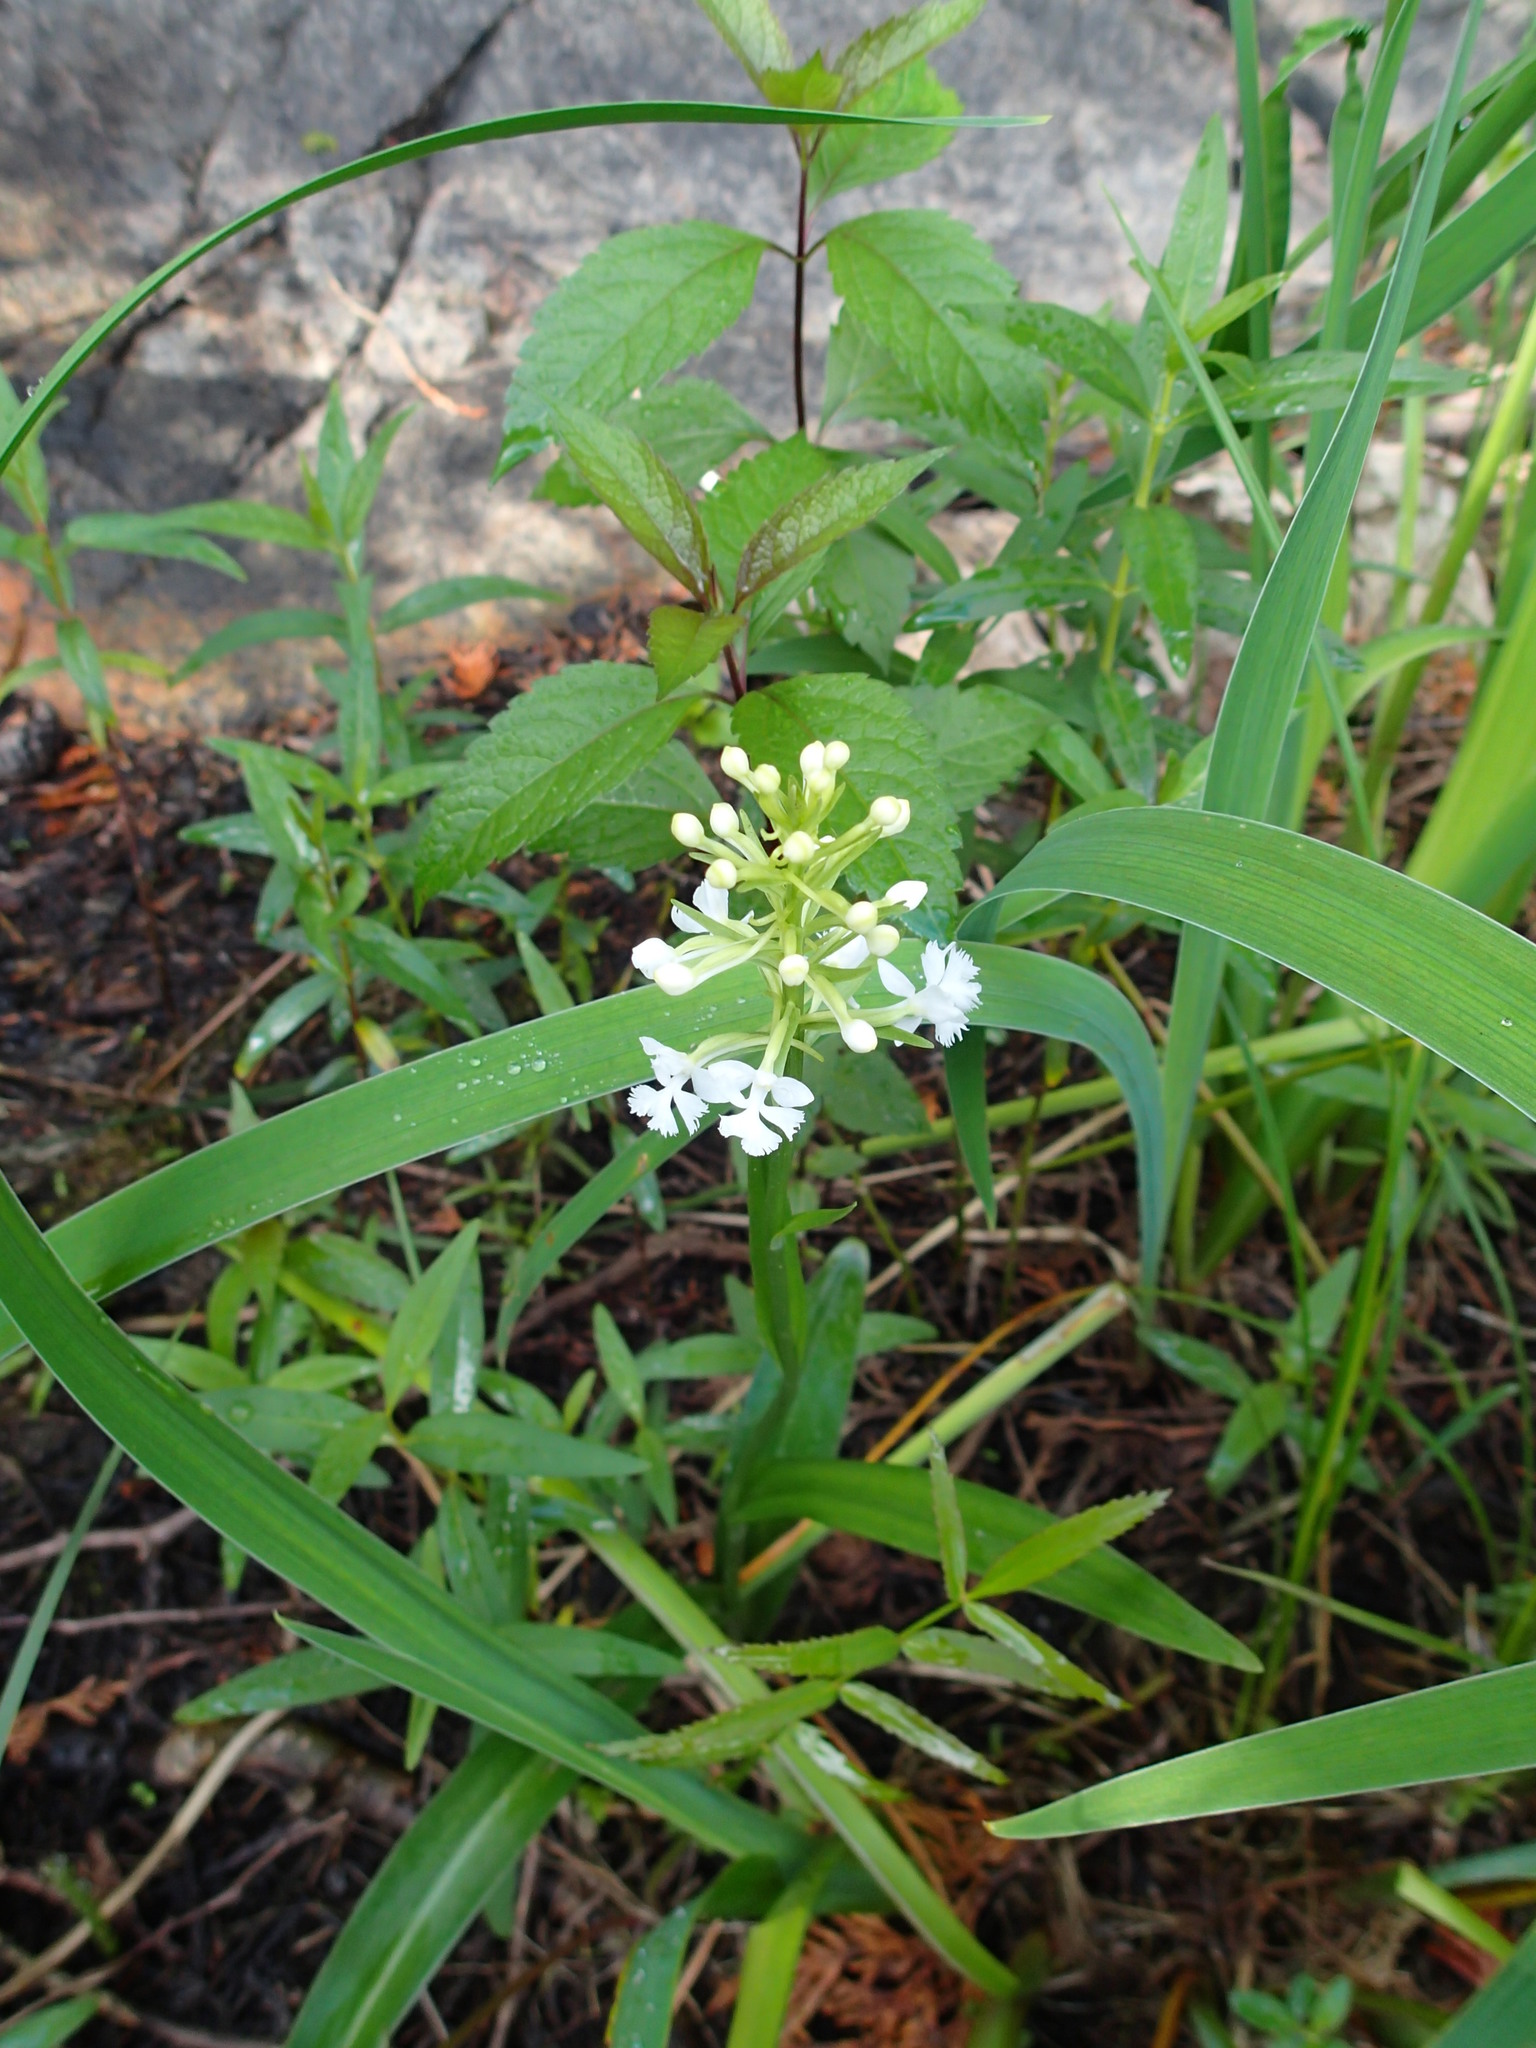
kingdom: Plantae
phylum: Tracheophyta
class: Liliopsida
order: Asparagales
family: Orchidaceae
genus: Platanthera
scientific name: Platanthera psycodes
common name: Lesser purple fringed orchid
